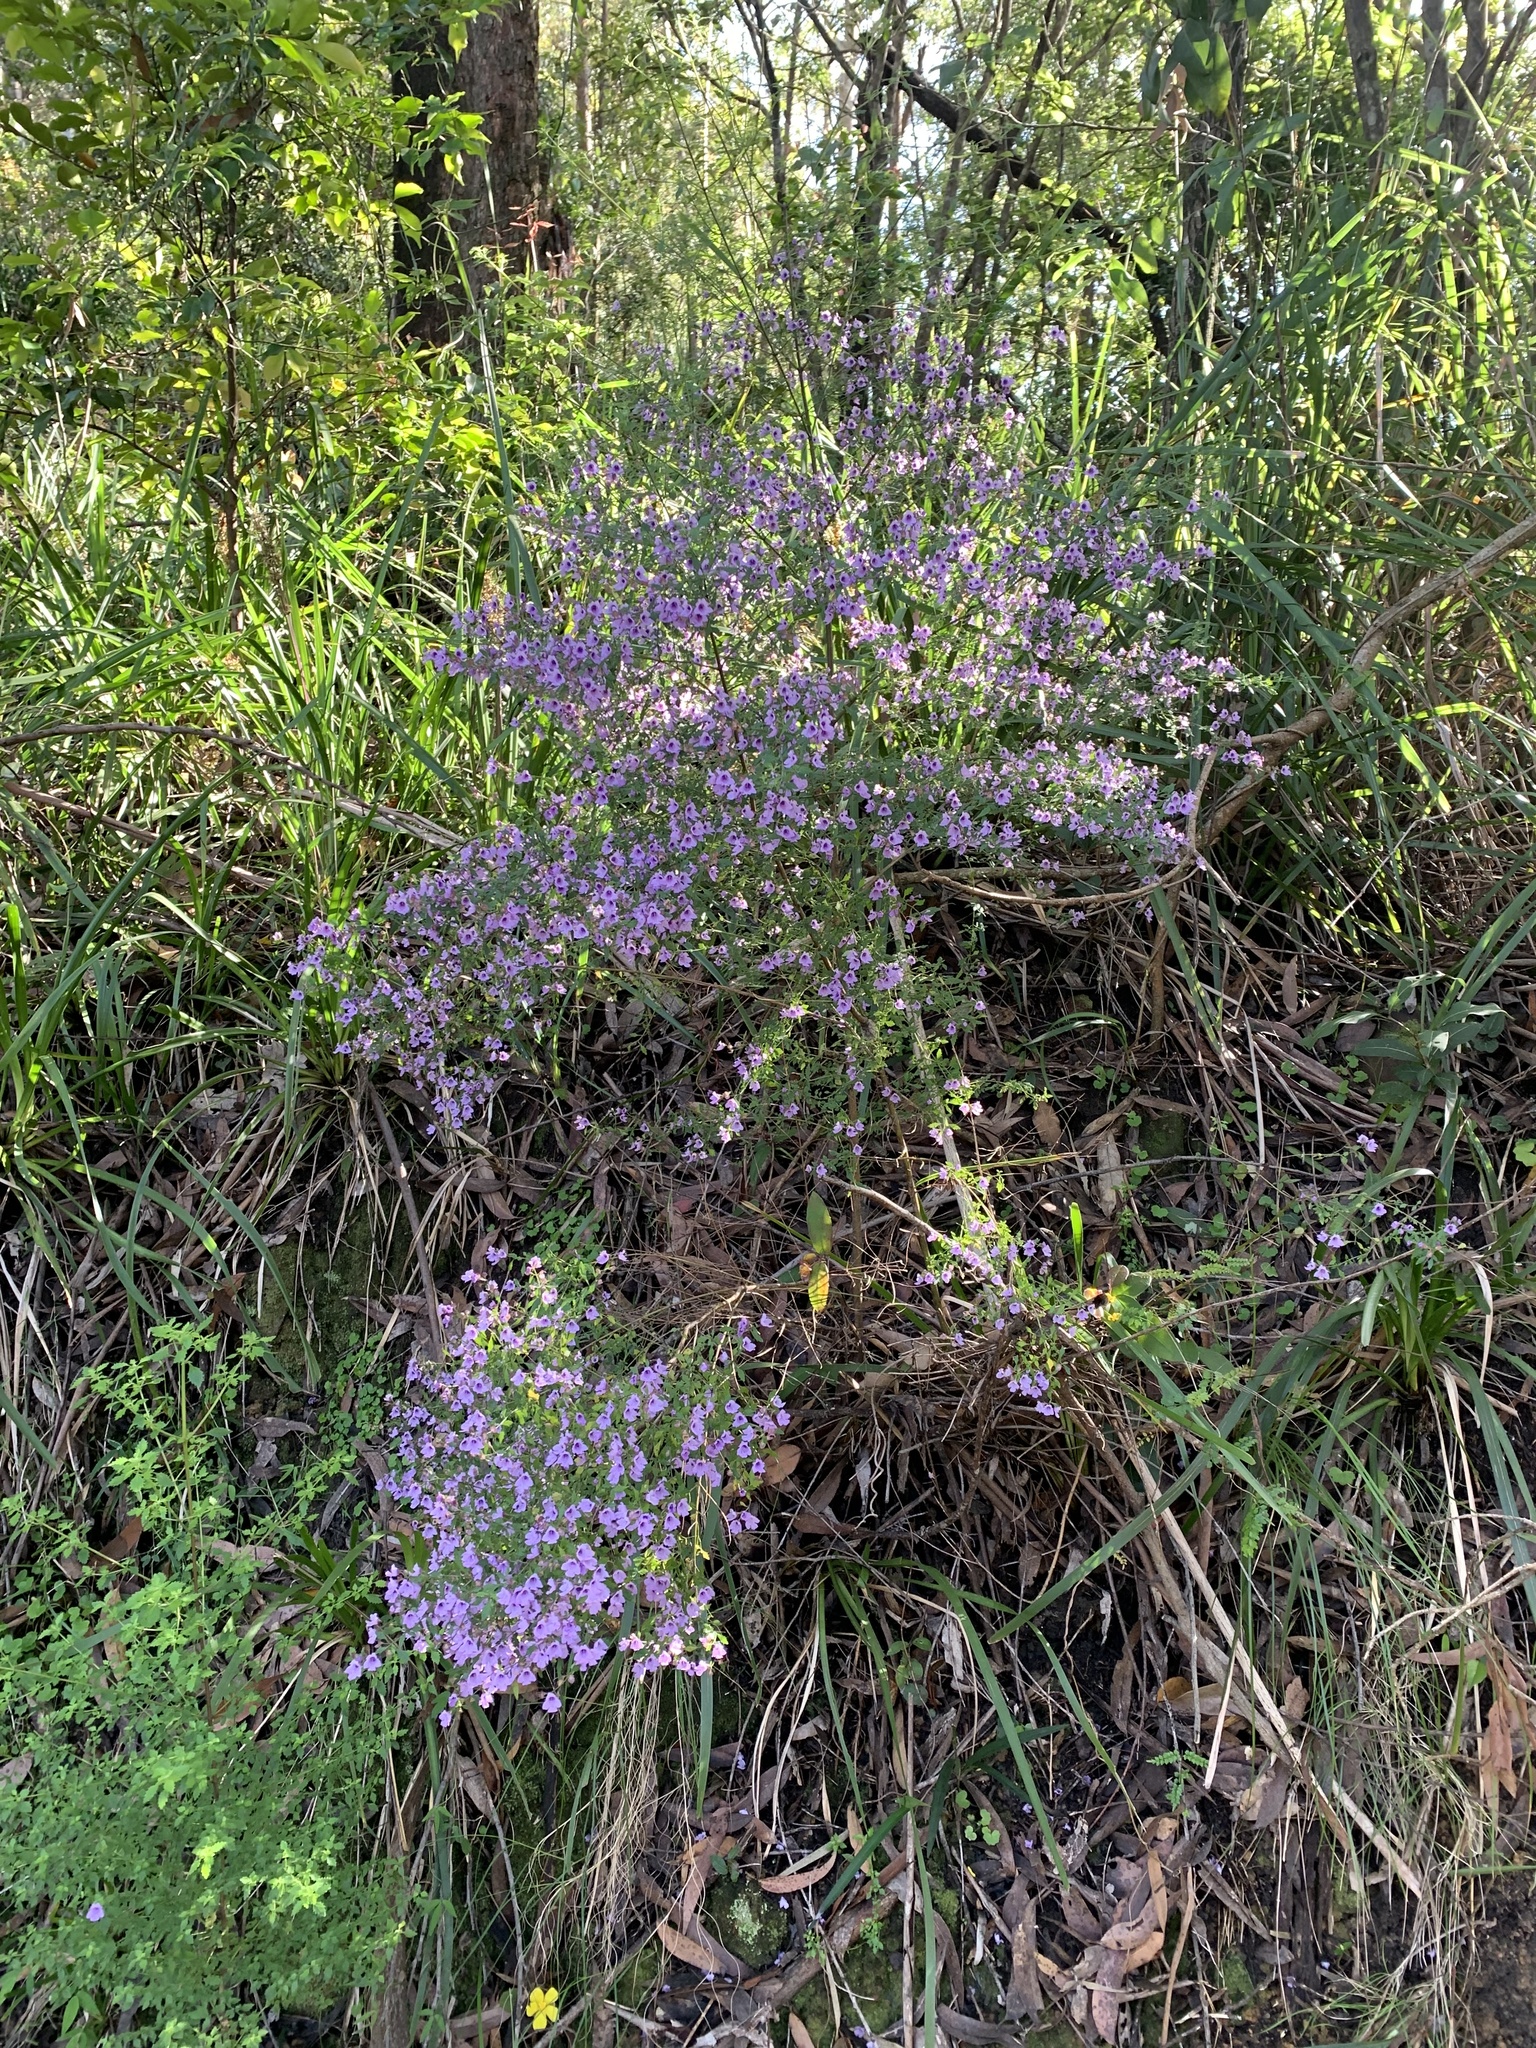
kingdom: Plantae
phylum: Tracheophyta
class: Magnoliopsida
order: Lamiales
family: Lamiaceae
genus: Prostanthera
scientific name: Prostanthera incisa
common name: Cut-leaf mintbush
